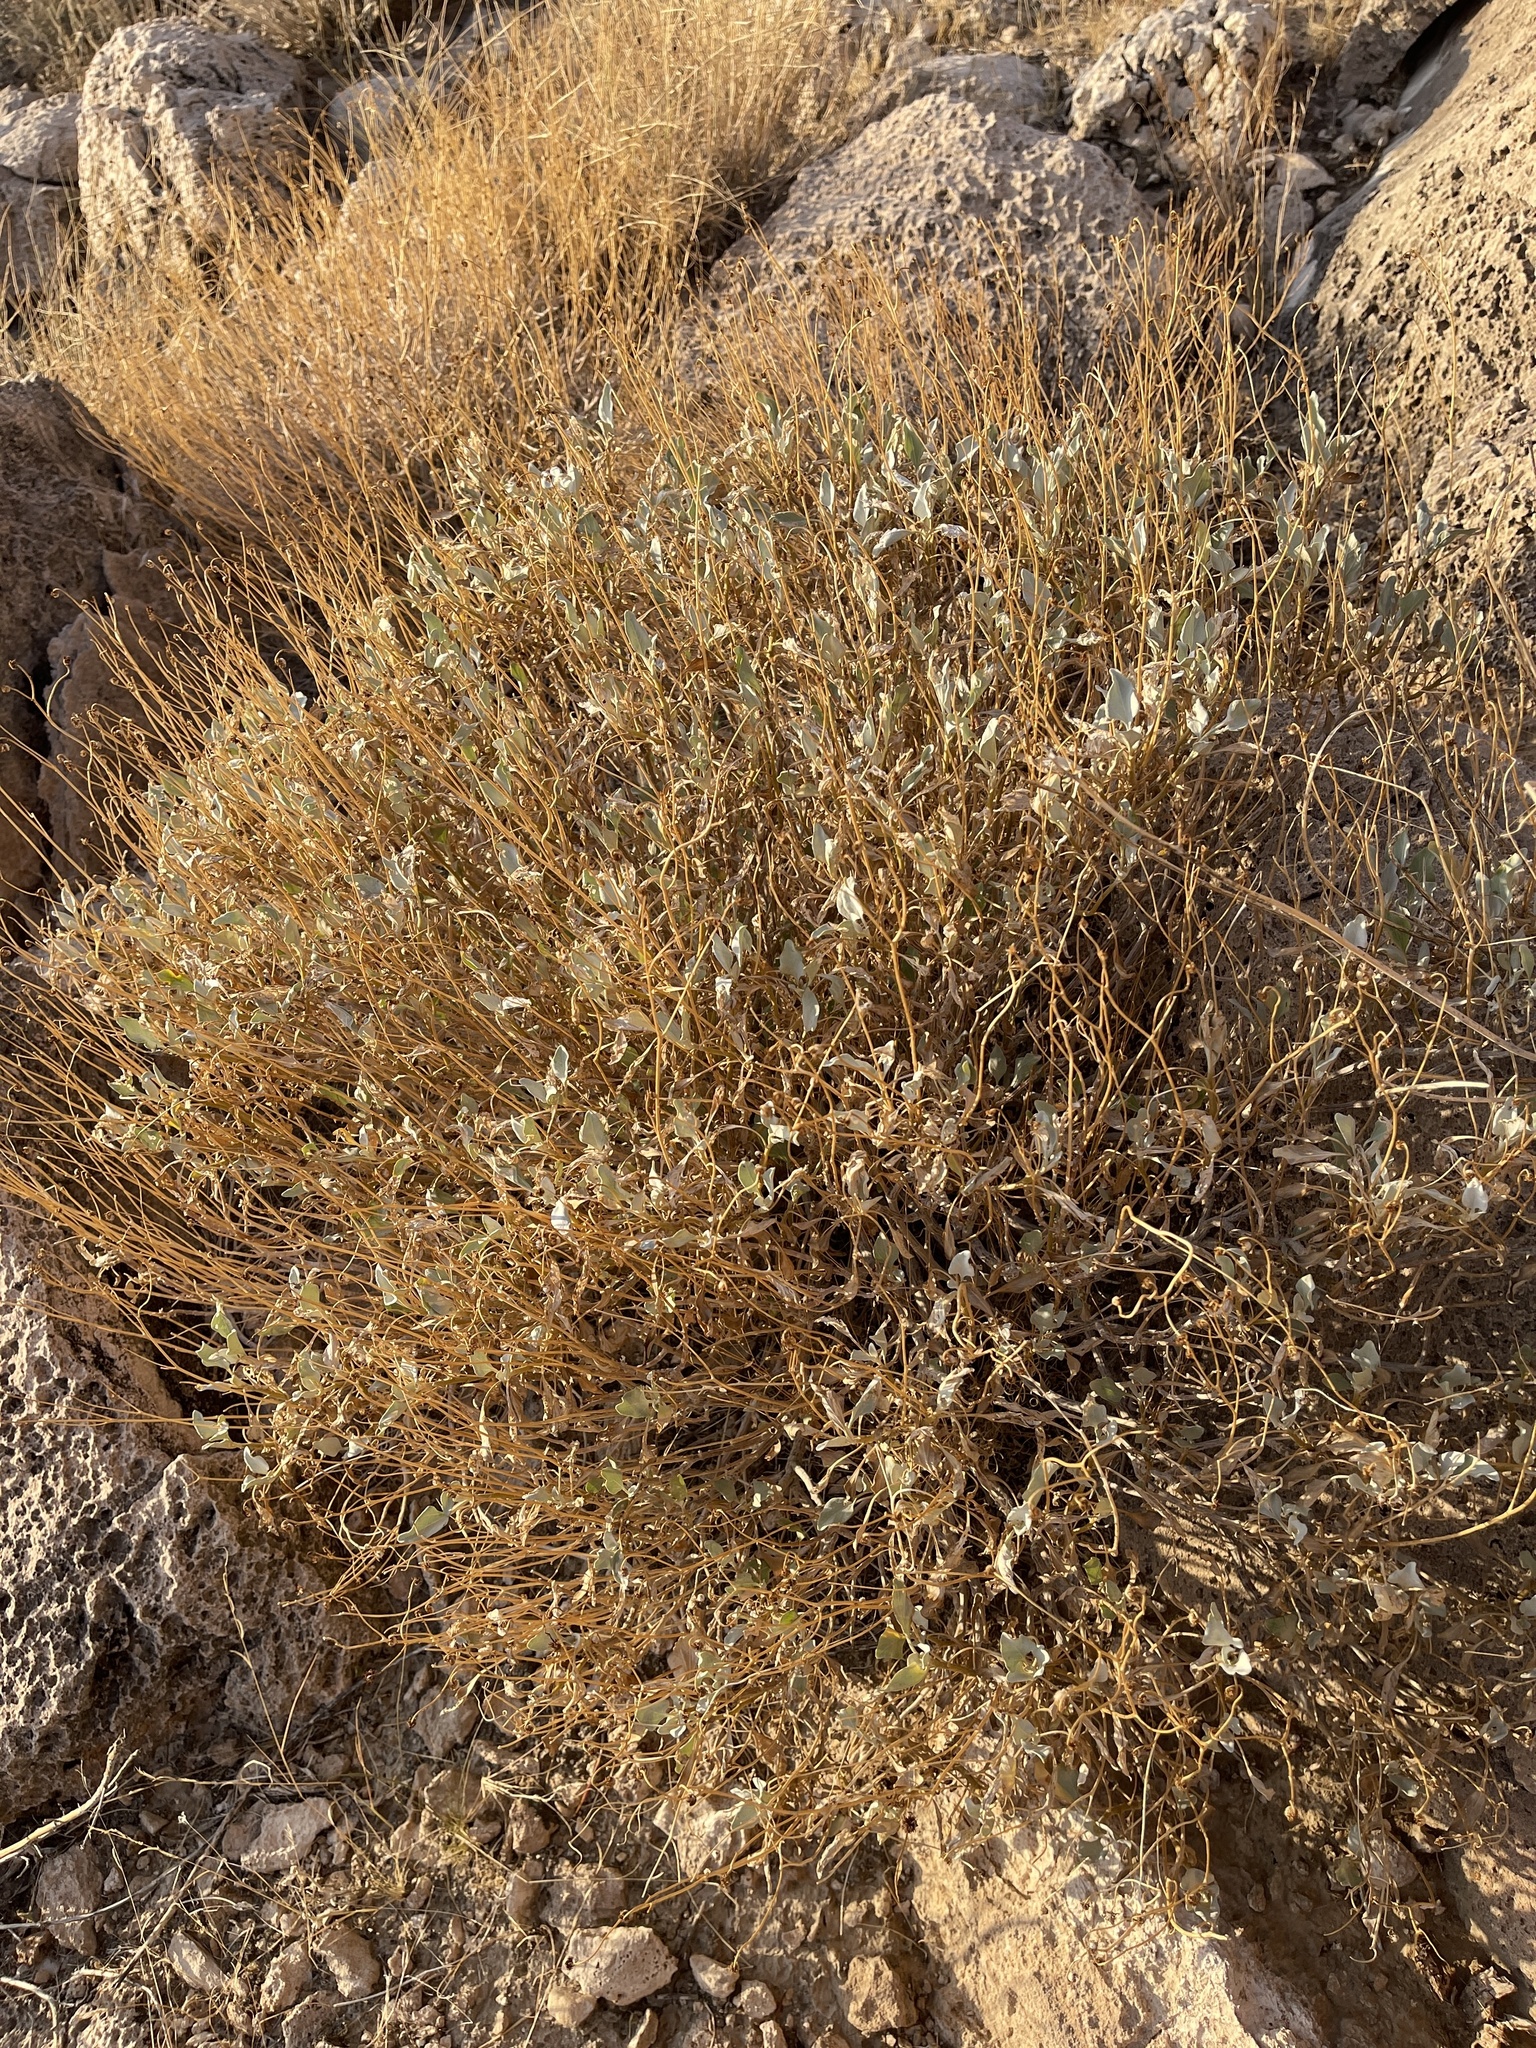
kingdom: Plantae
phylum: Tracheophyta
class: Magnoliopsida
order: Asterales
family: Asteraceae
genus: Encelia
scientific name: Encelia farinosa
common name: Brittlebush
